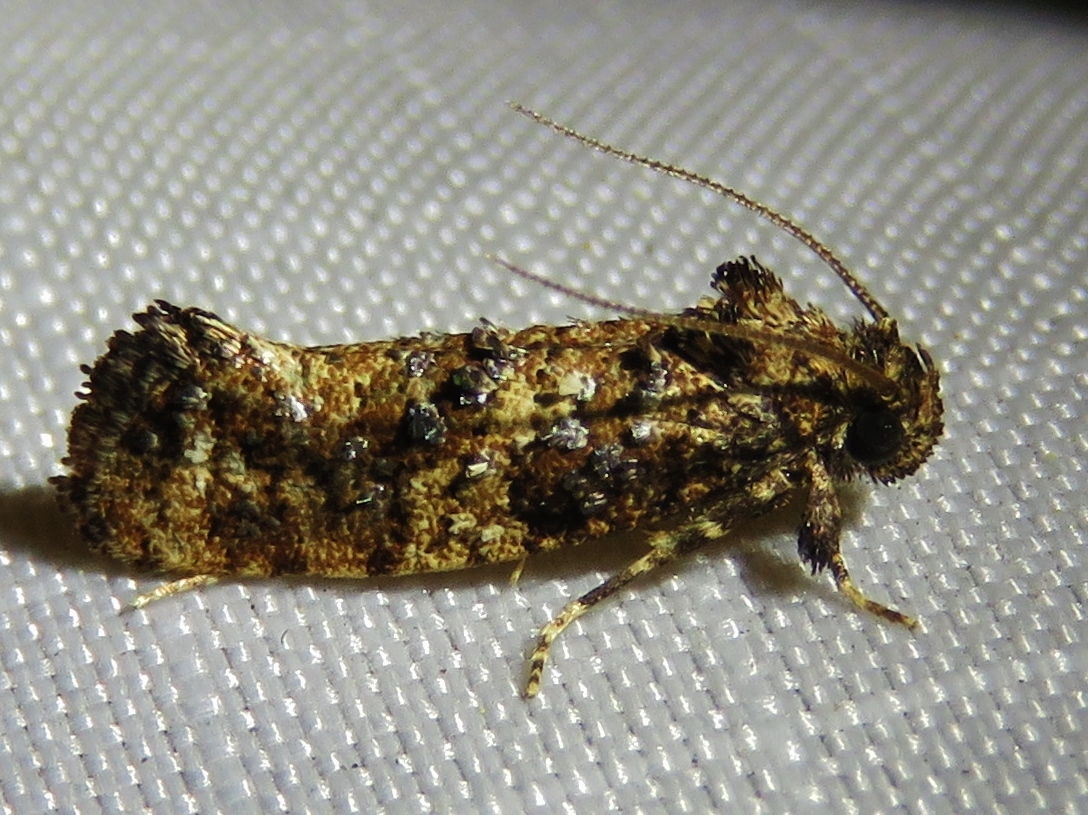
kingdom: Animalia
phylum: Arthropoda
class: Insecta
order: Lepidoptera
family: Tineidae
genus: Acrolophus
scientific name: Acrolophus cressoni
